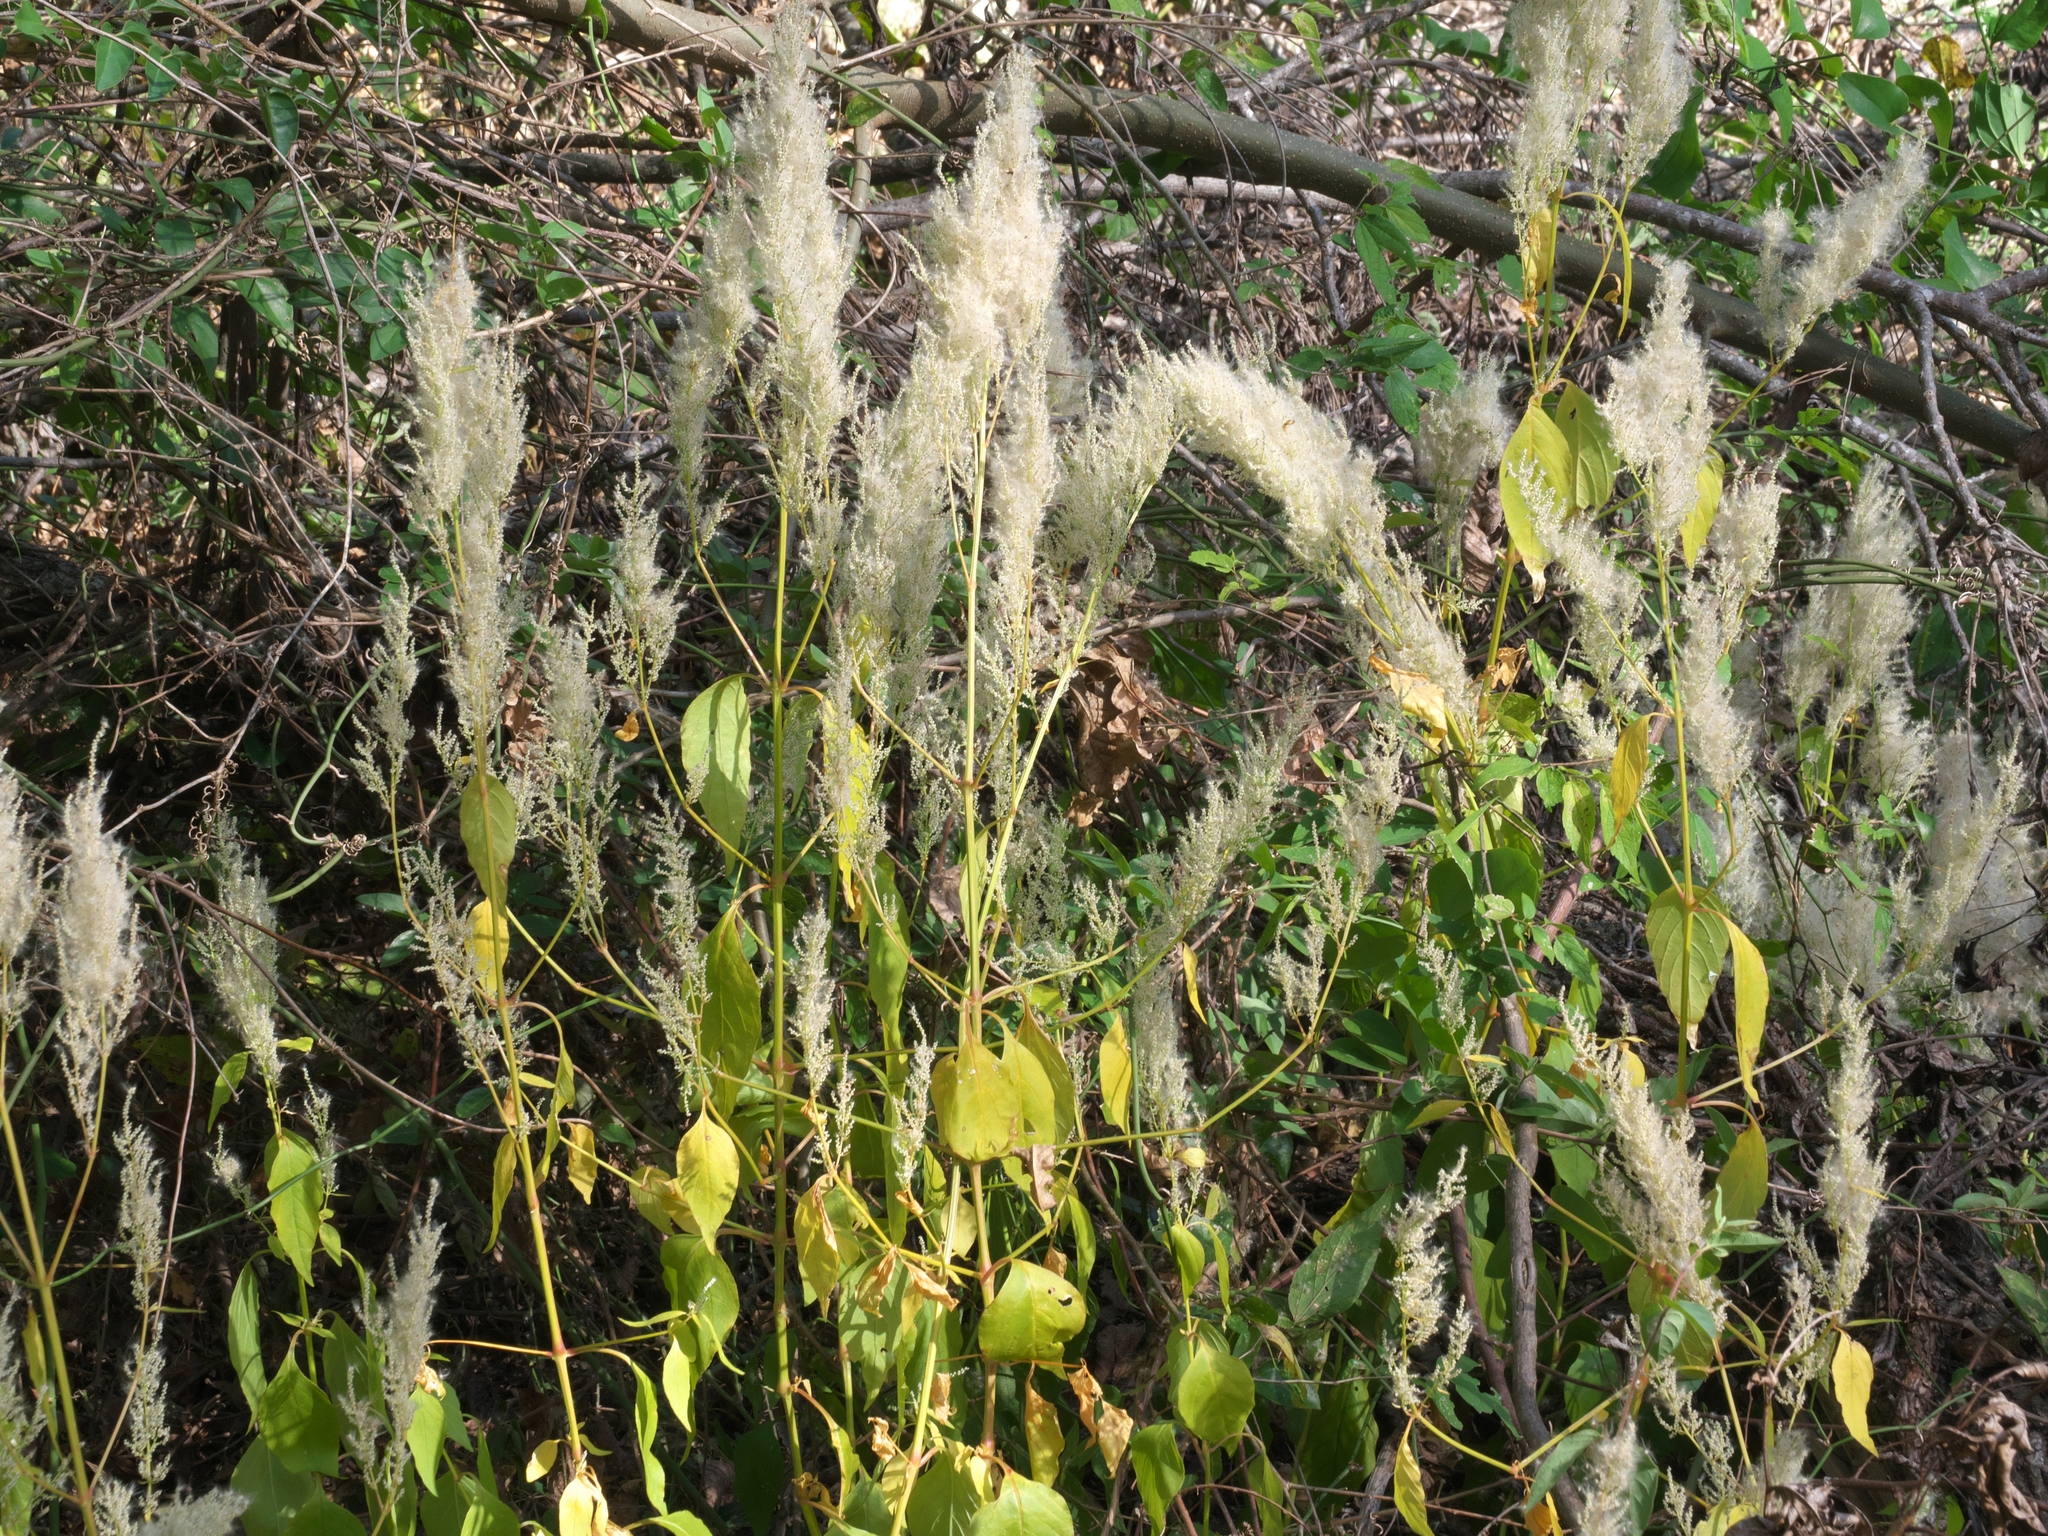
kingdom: Plantae
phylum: Tracheophyta
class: Magnoliopsida
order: Caryophyllales
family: Amaranthaceae
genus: Iresine
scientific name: Iresine rhizomatosa
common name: Juda's-bush
